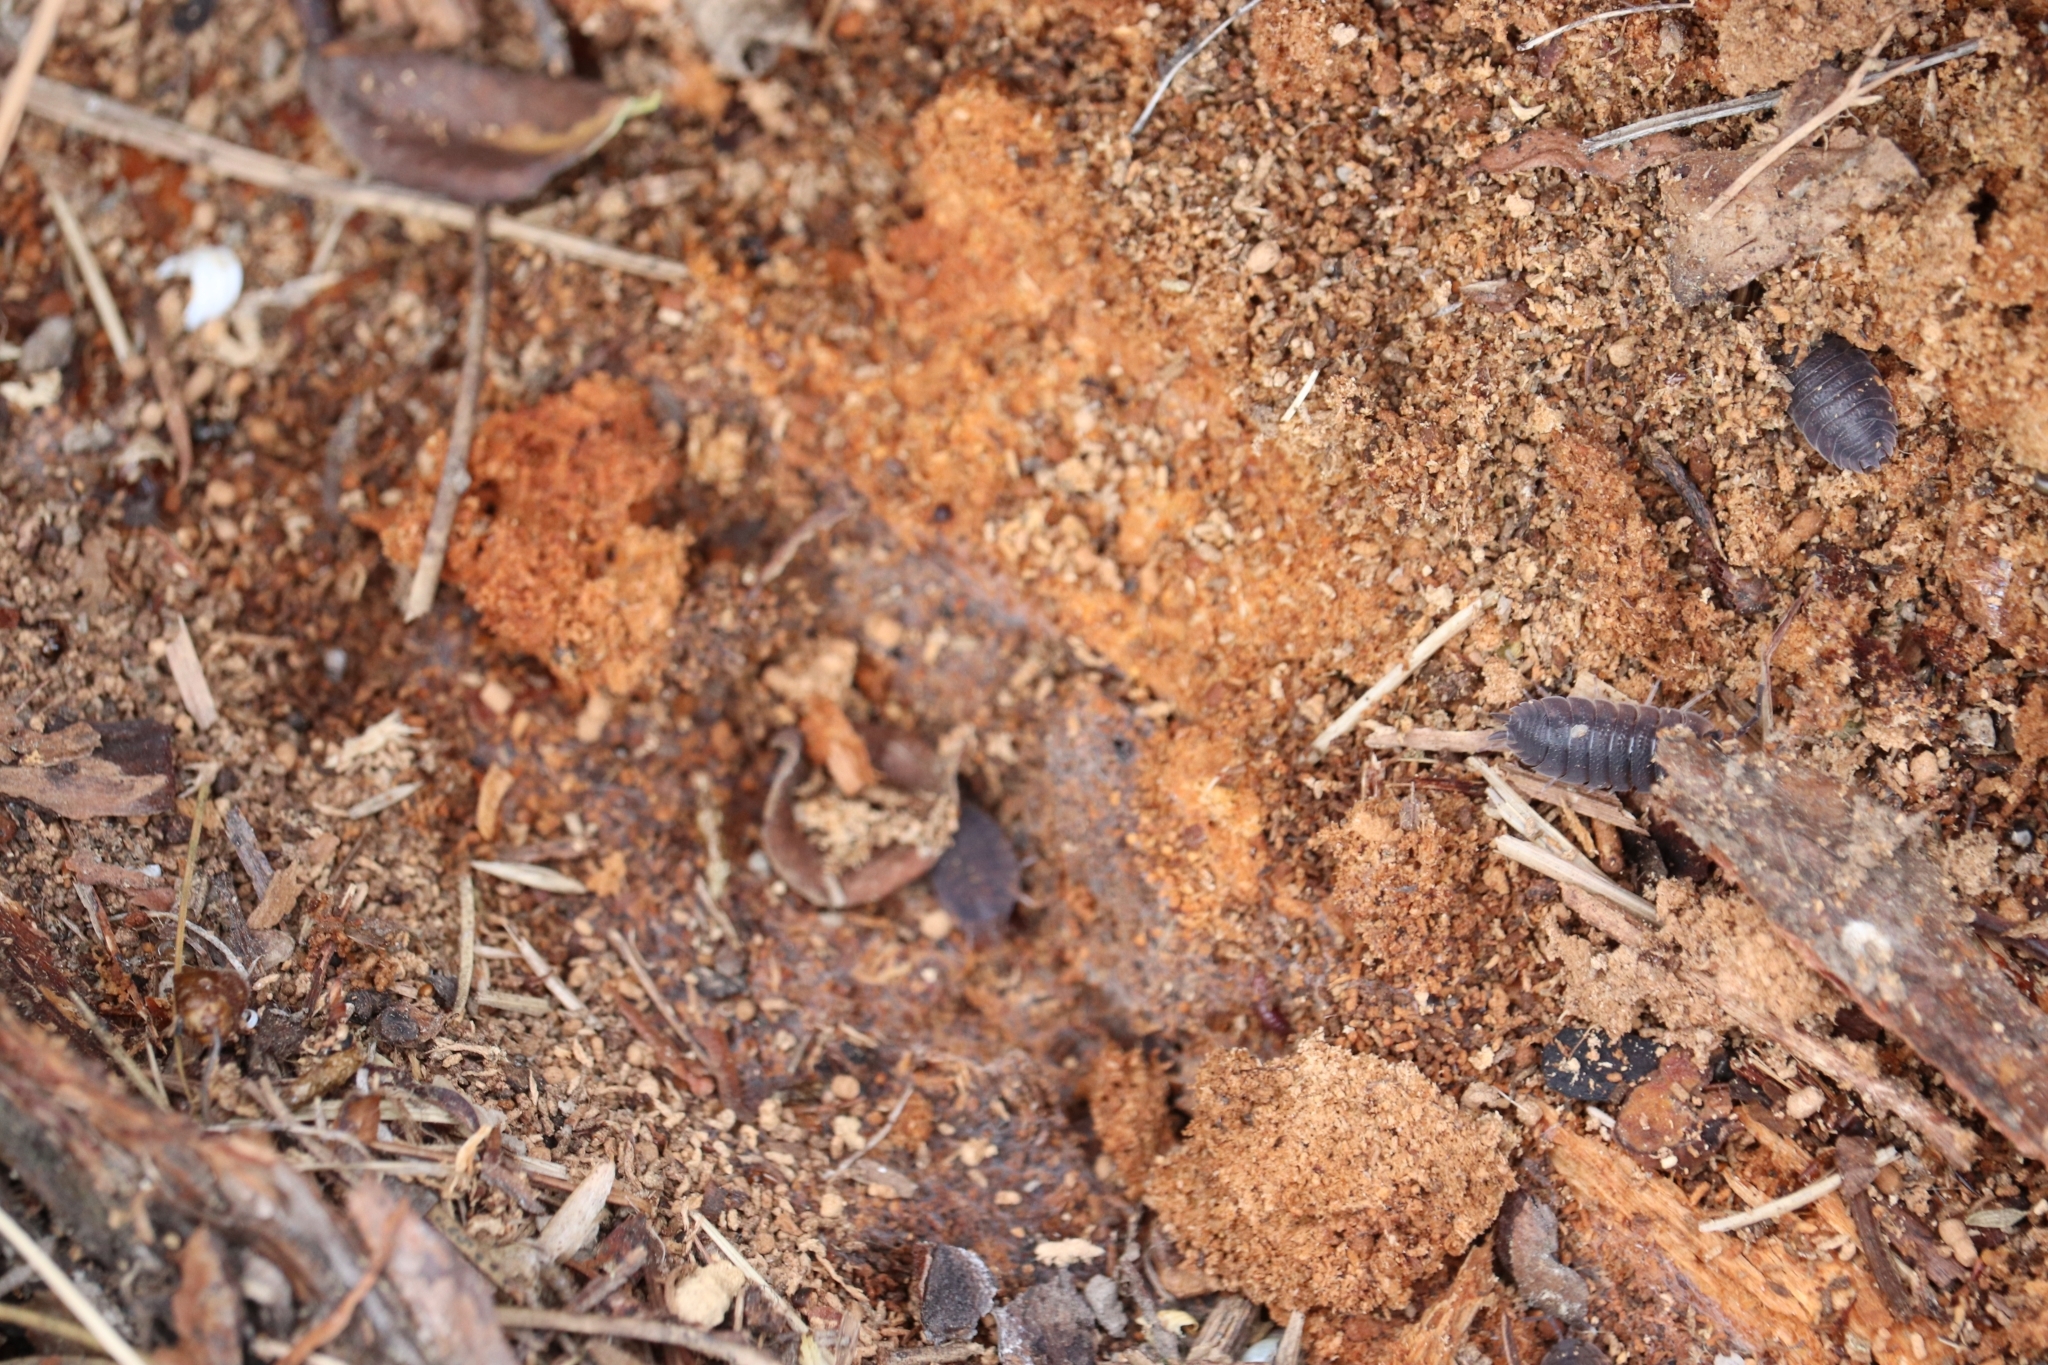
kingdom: Animalia
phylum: Arthropoda
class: Malacostraca
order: Isopoda
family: Porcellionidae
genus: Porcellio
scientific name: Porcellio scaber
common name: Common rough woodlouse
